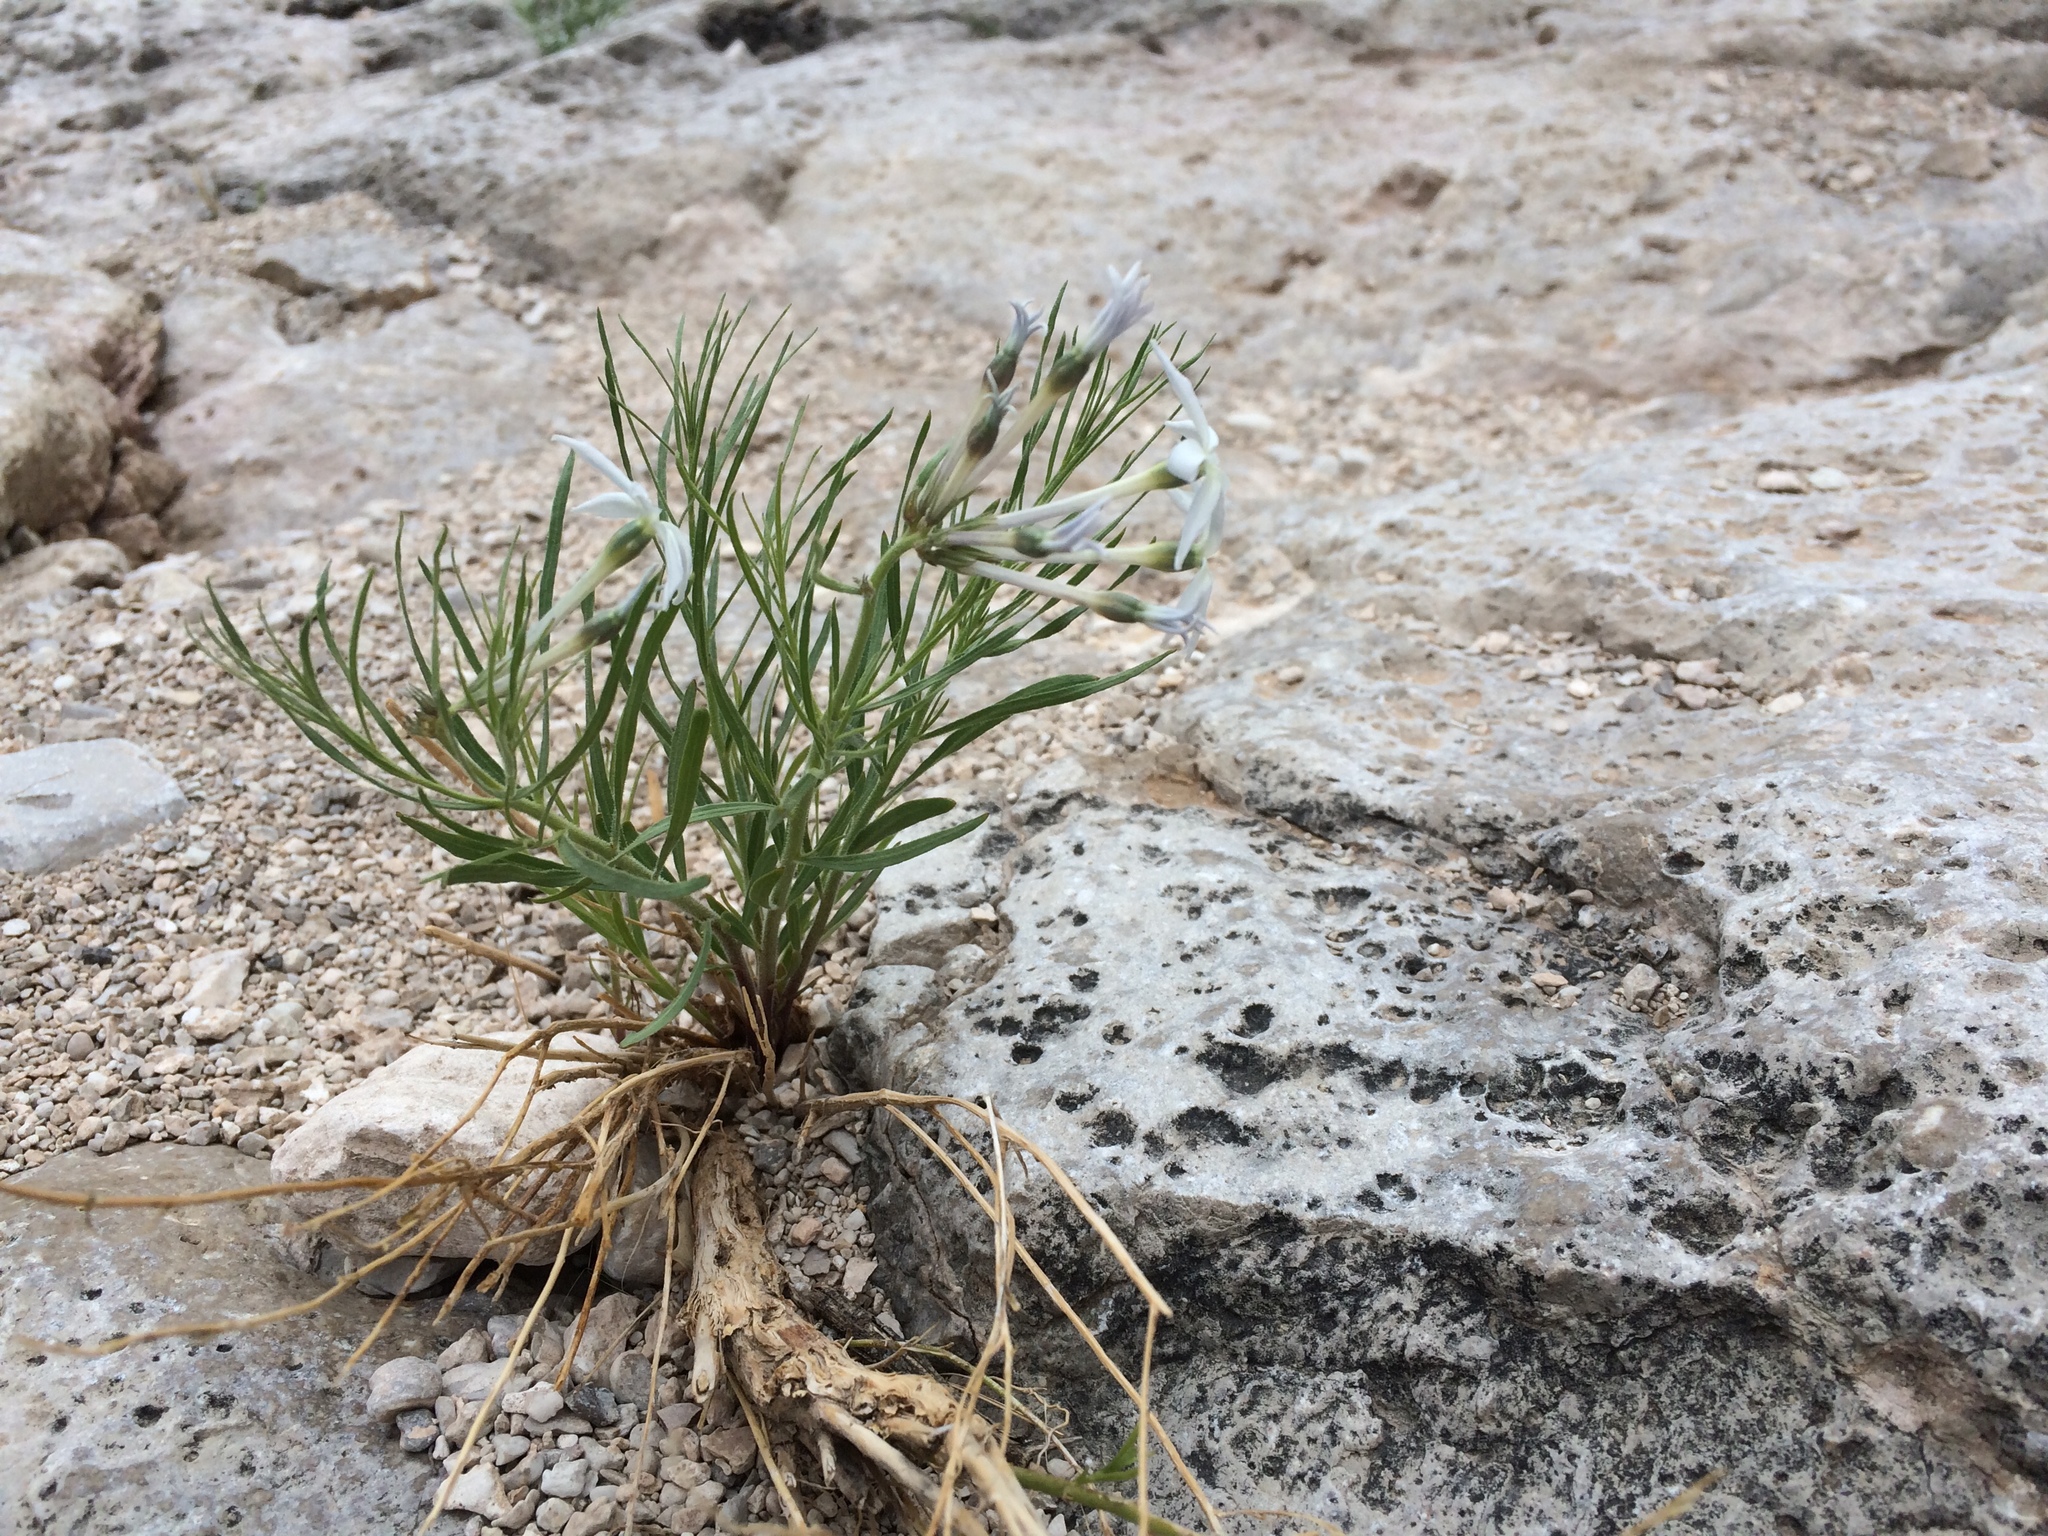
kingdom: Plantae
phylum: Tracheophyta
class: Magnoliopsida
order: Gentianales
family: Apocynaceae
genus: Amsonia
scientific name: Amsonia longiflora
